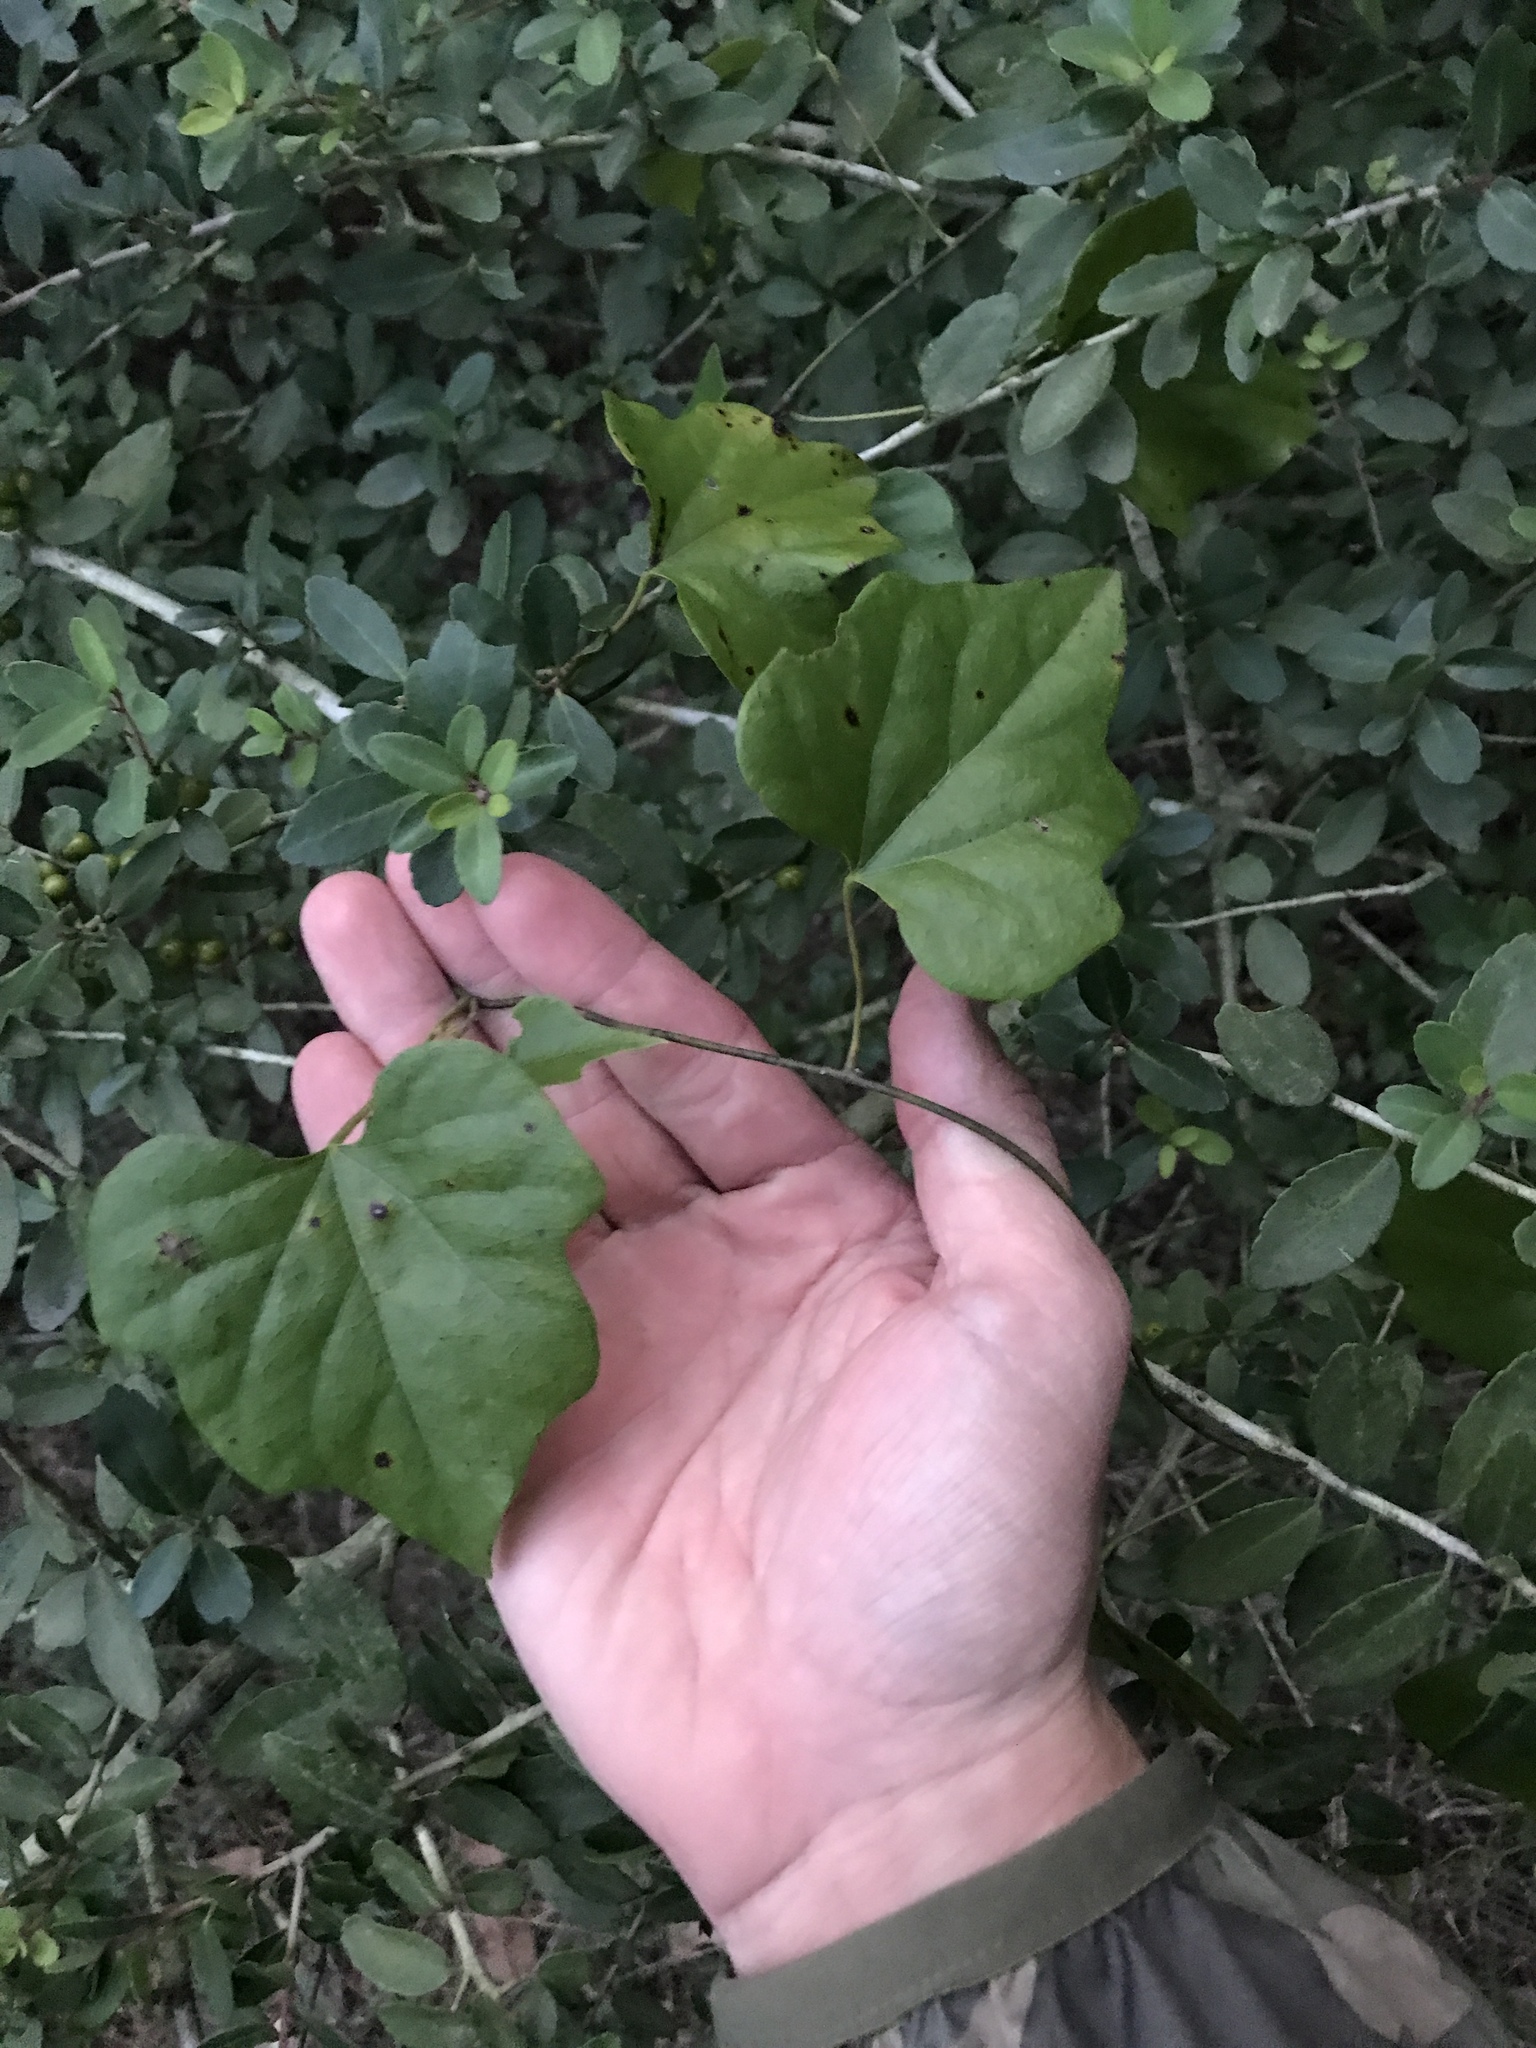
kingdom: Plantae
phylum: Tracheophyta
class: Magnoliopsida
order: Ranunculales
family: Menispermaceae
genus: Cocculus
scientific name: Cocculus carolinus
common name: Carolina moonseed
